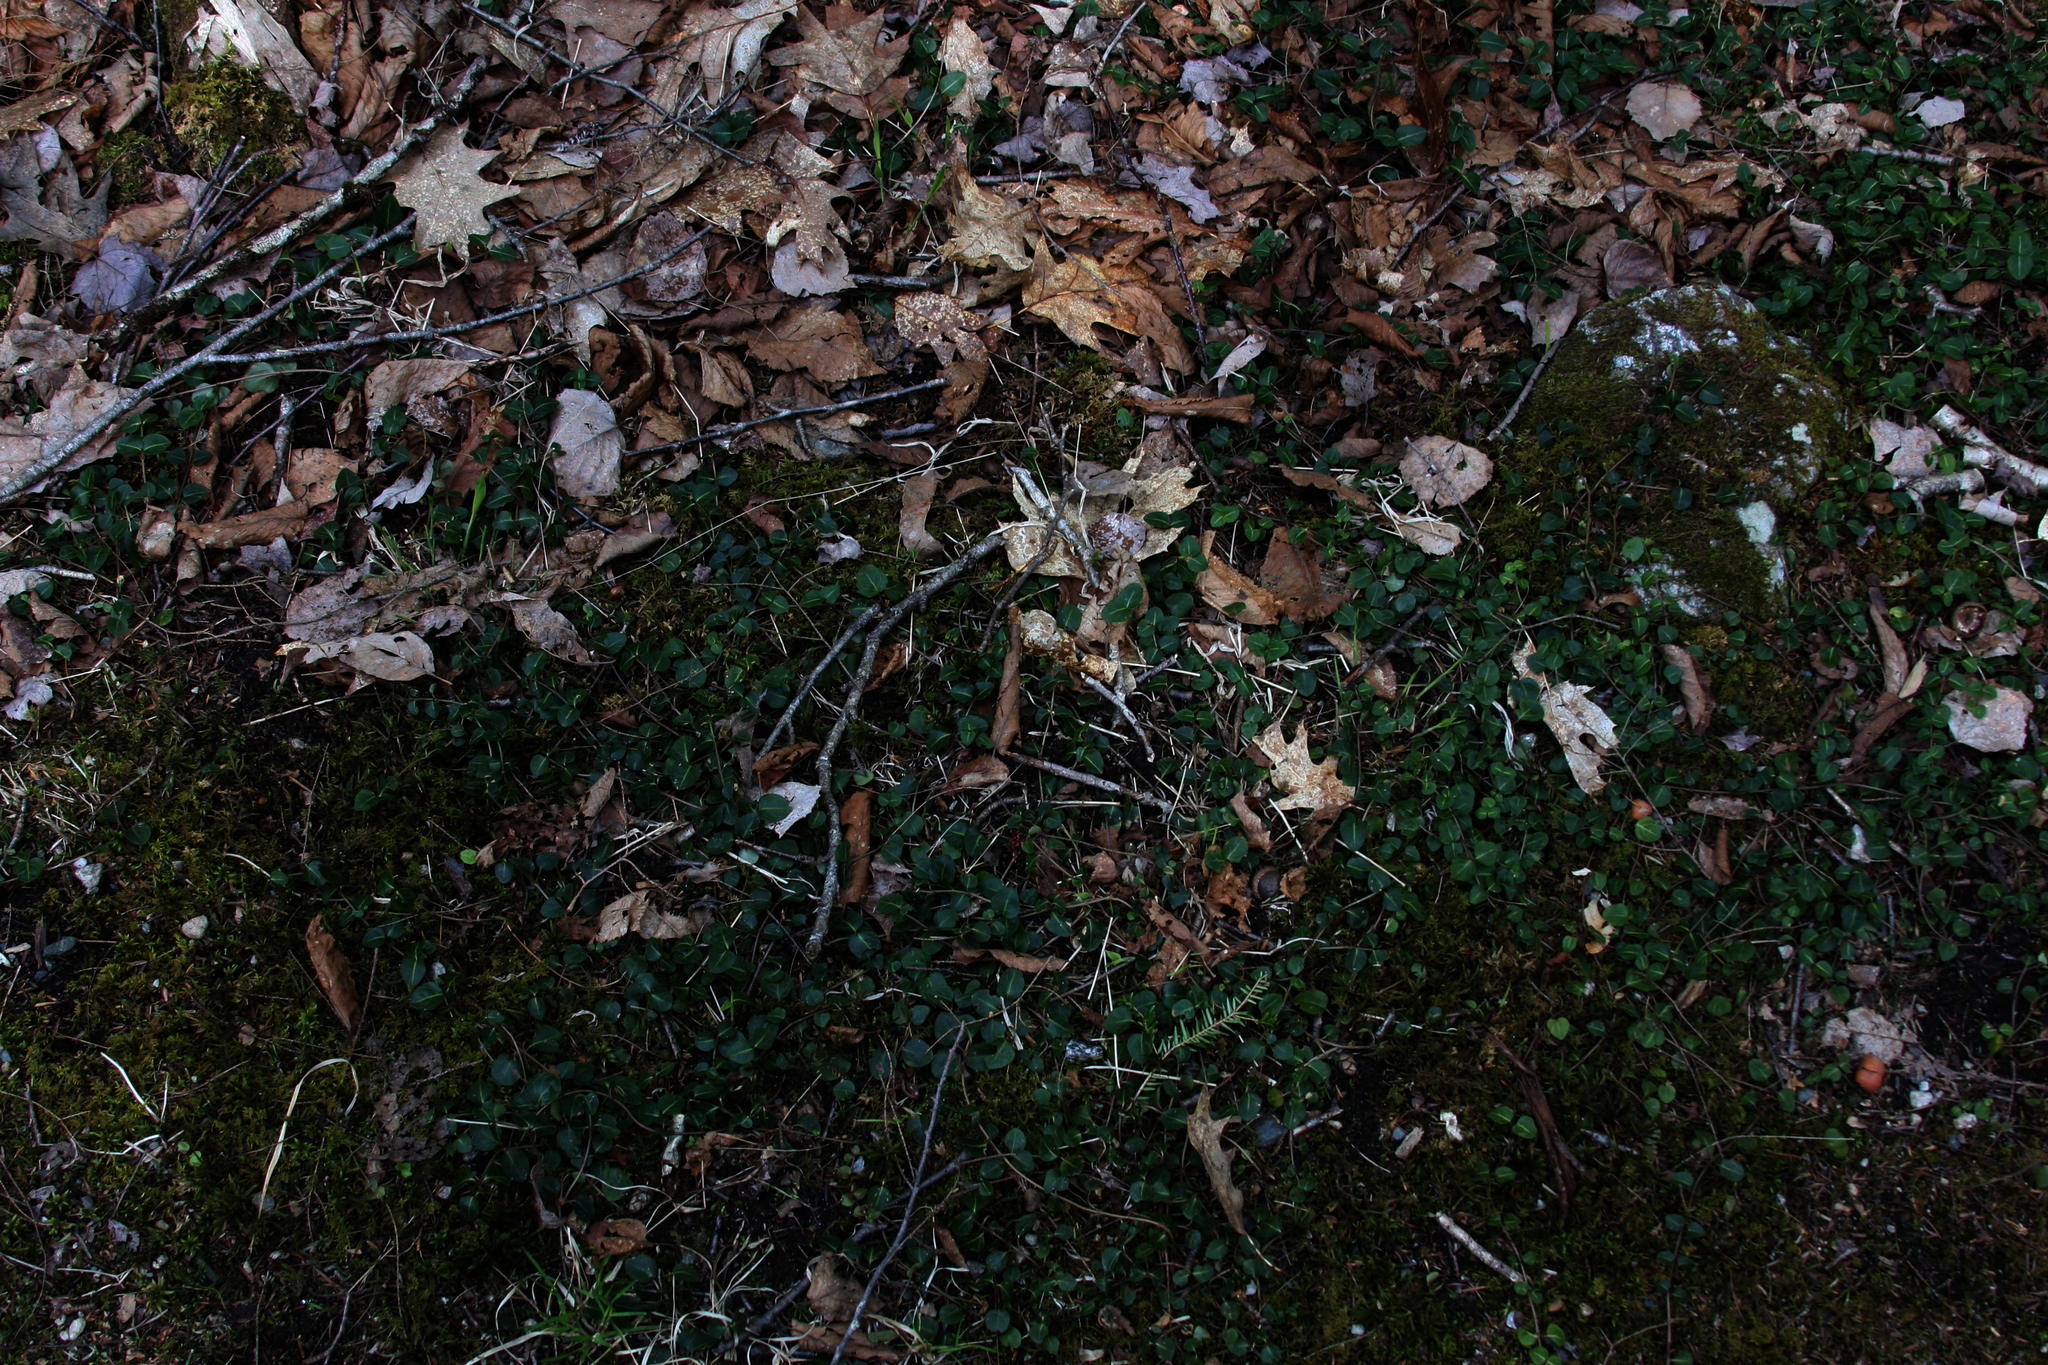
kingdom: Plantae
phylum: Tracheophyta
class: Magnoliopsida
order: Gentianales
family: Rubiaceae
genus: Mitchella
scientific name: Mitchella repens
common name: Partridge-berry
